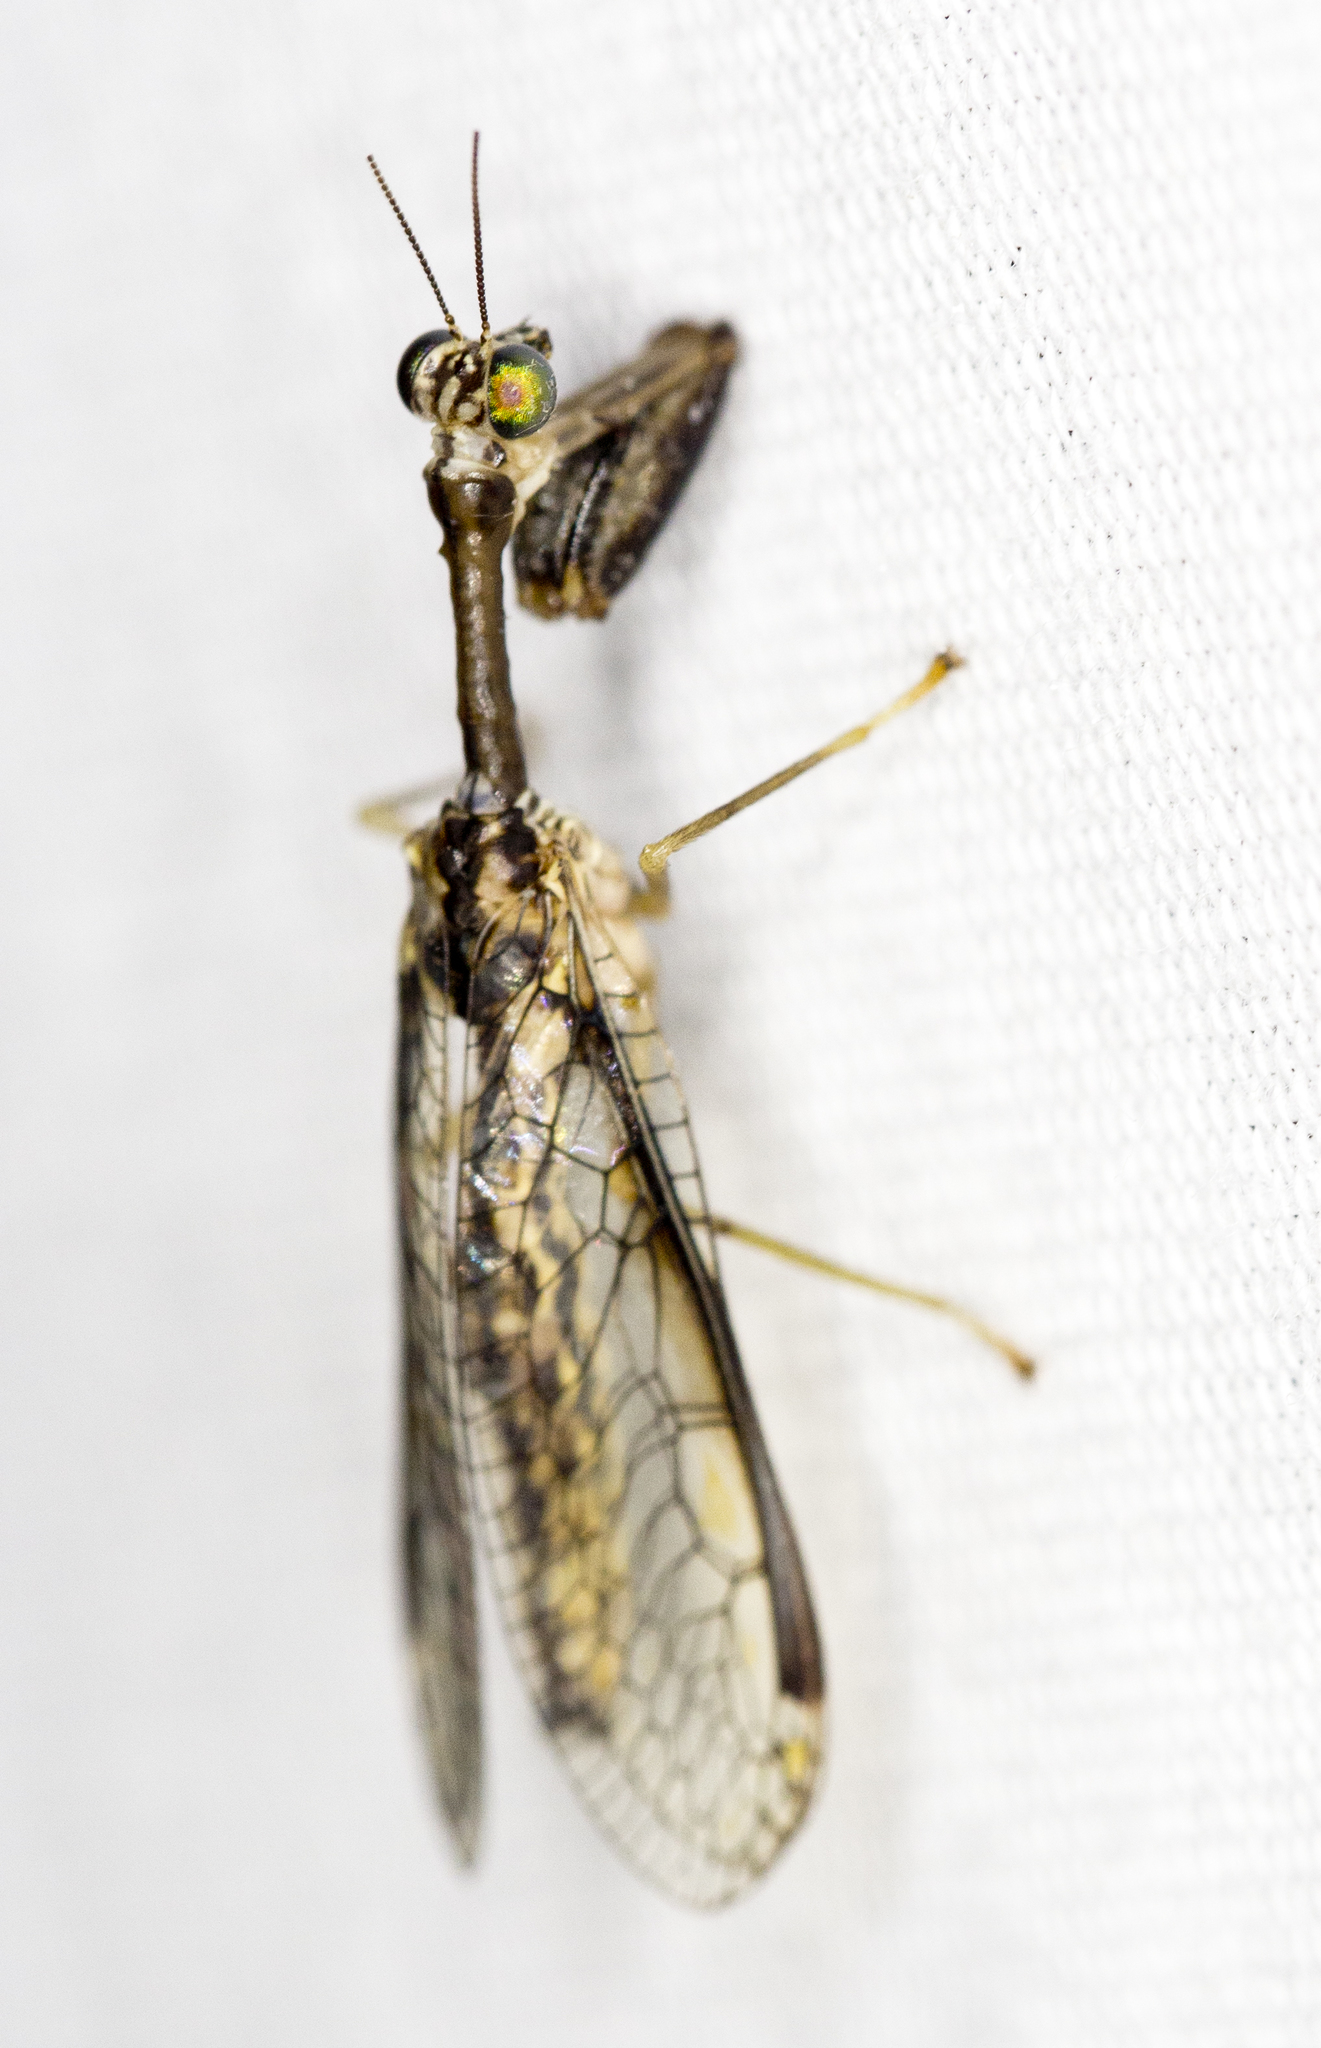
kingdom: Animalia
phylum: Arthropoda
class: Insecta
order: Neuroptera
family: Mantispidae
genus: Dicromantispa
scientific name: Dicromantispa sayi
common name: Say's mantidfly
